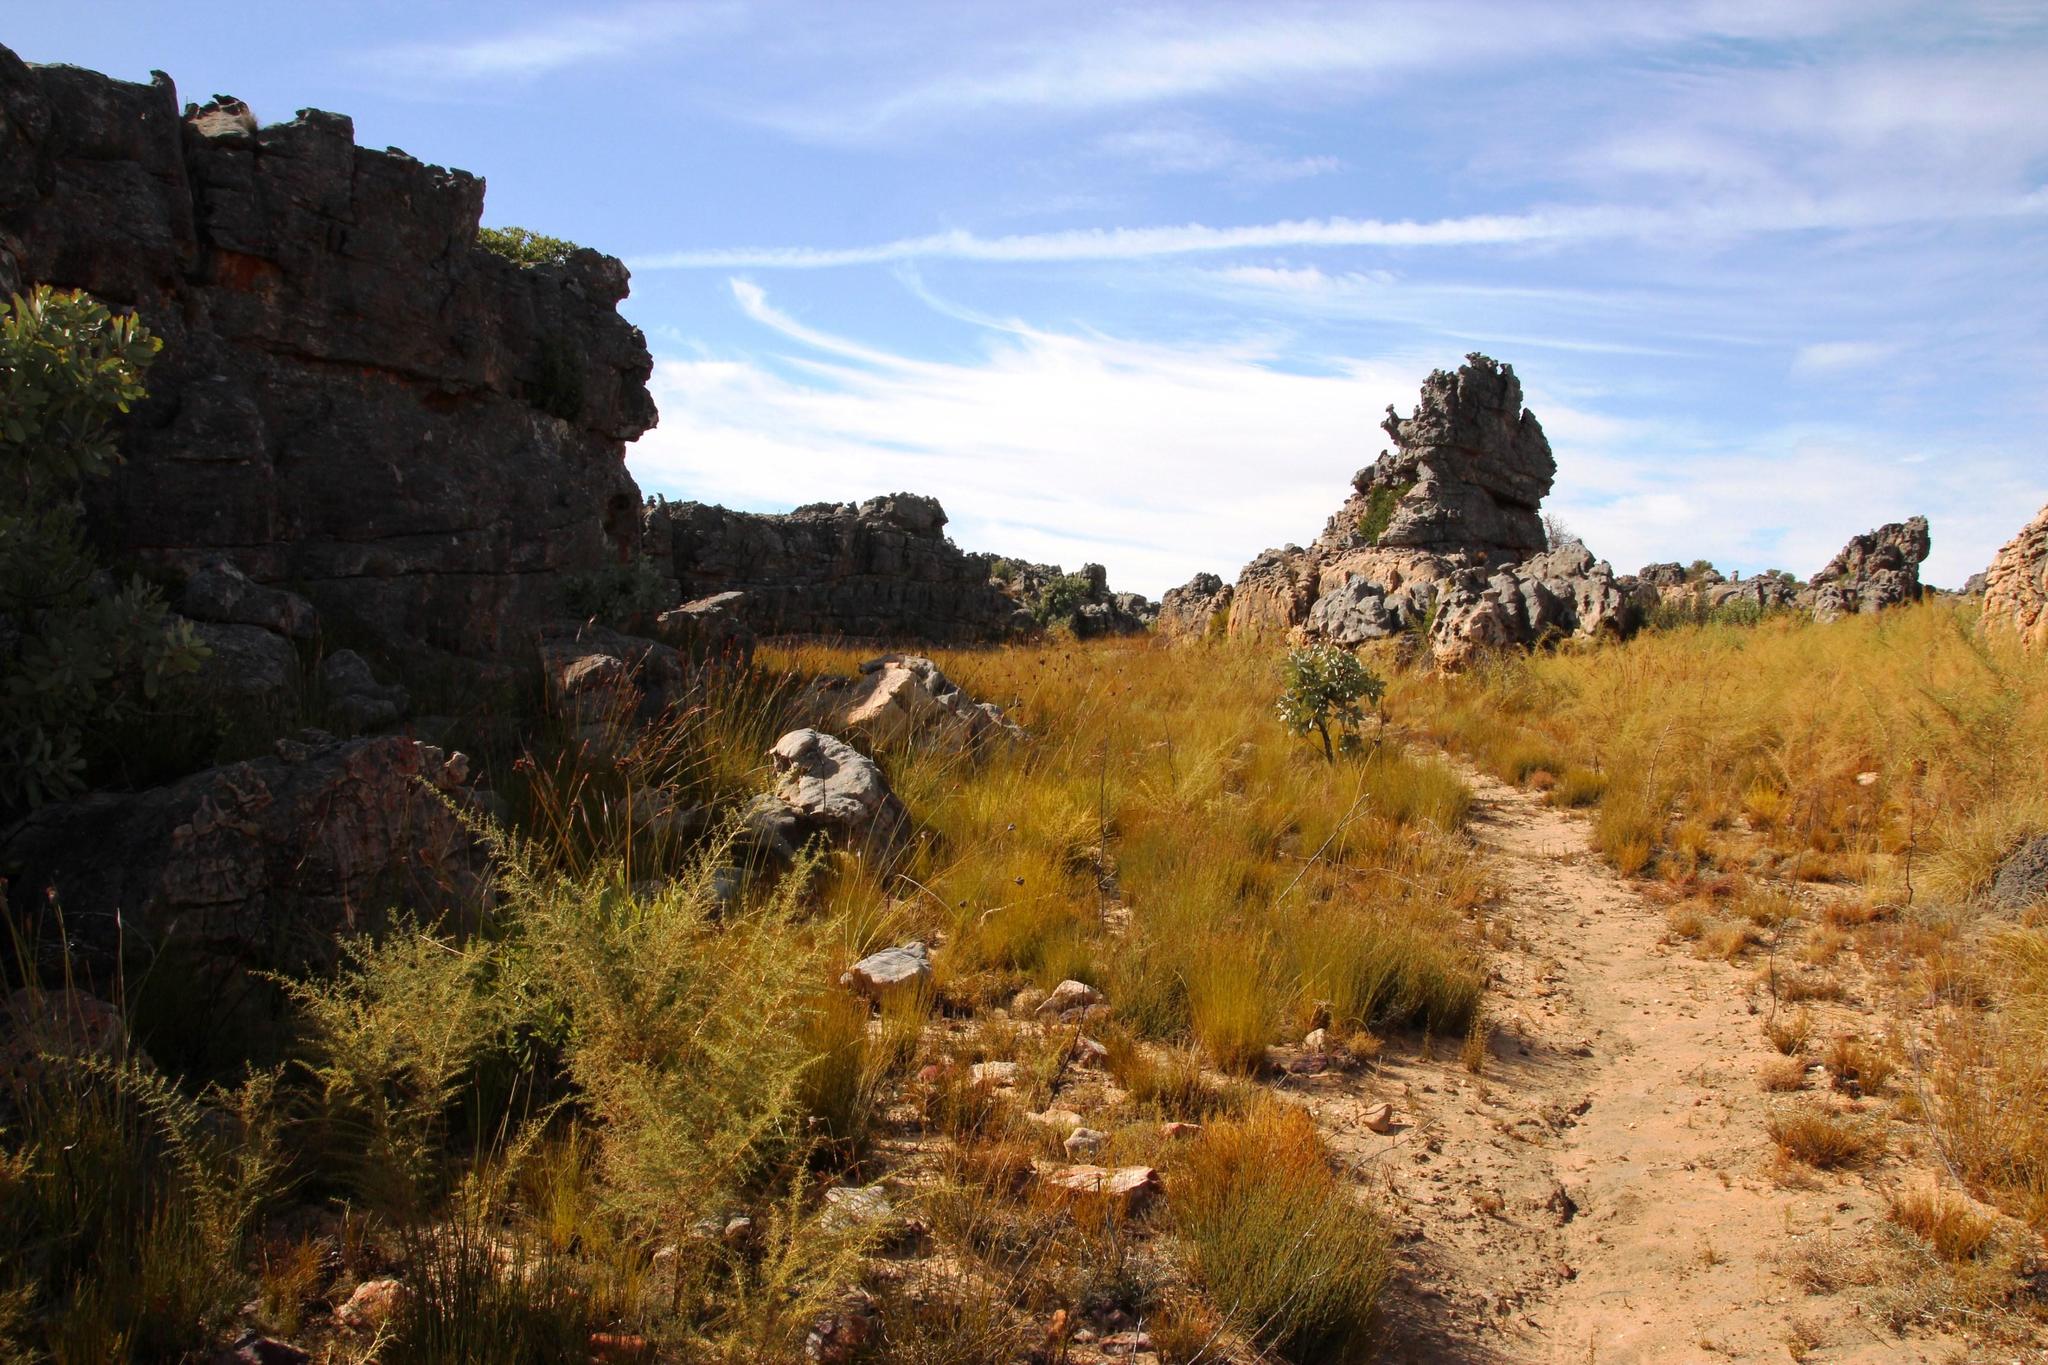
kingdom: Plantae
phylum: Tracheophyta
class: Liliopsida
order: Asparagales
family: Iridaceae
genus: Bobartia
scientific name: Bobartia rufa
